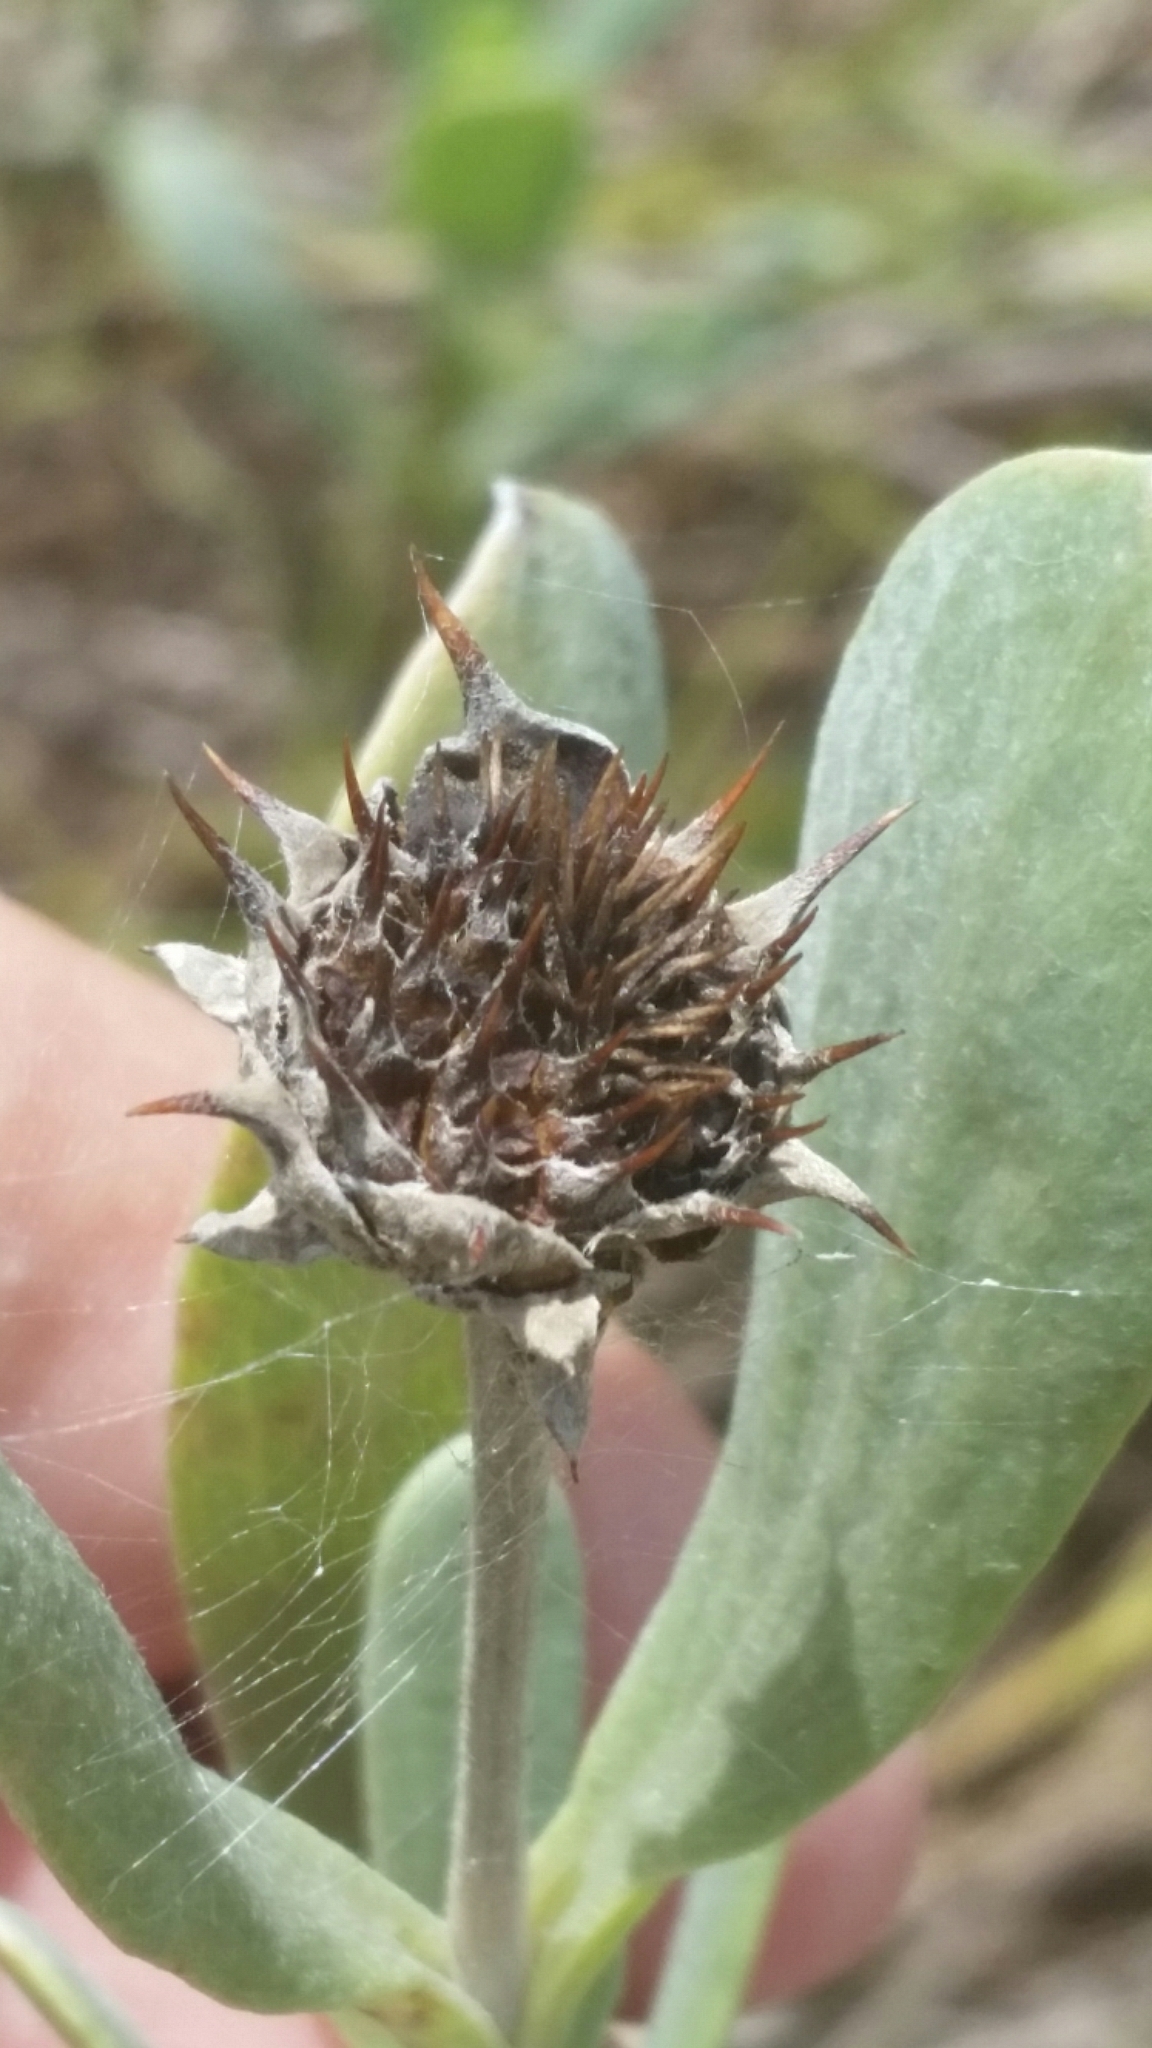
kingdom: Plantae
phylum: Tracheophyta
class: Magnoliopsida
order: Asterales
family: Asteraceae
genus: Borrichia
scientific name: Borrichia frutescens
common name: Sea oxeye
